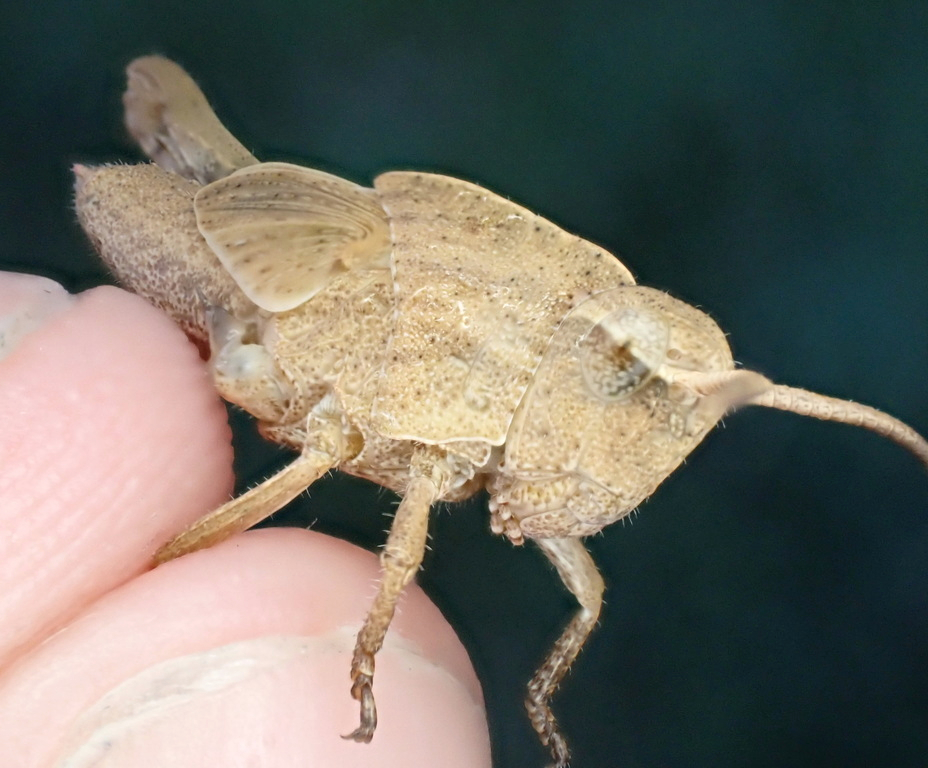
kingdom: Animalia
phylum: Arthropoda
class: Insecta
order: Orthoptera
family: Acrididae
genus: Chortophaga
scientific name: Chortophaga viridifasciata
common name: Green-striped grasshopper
